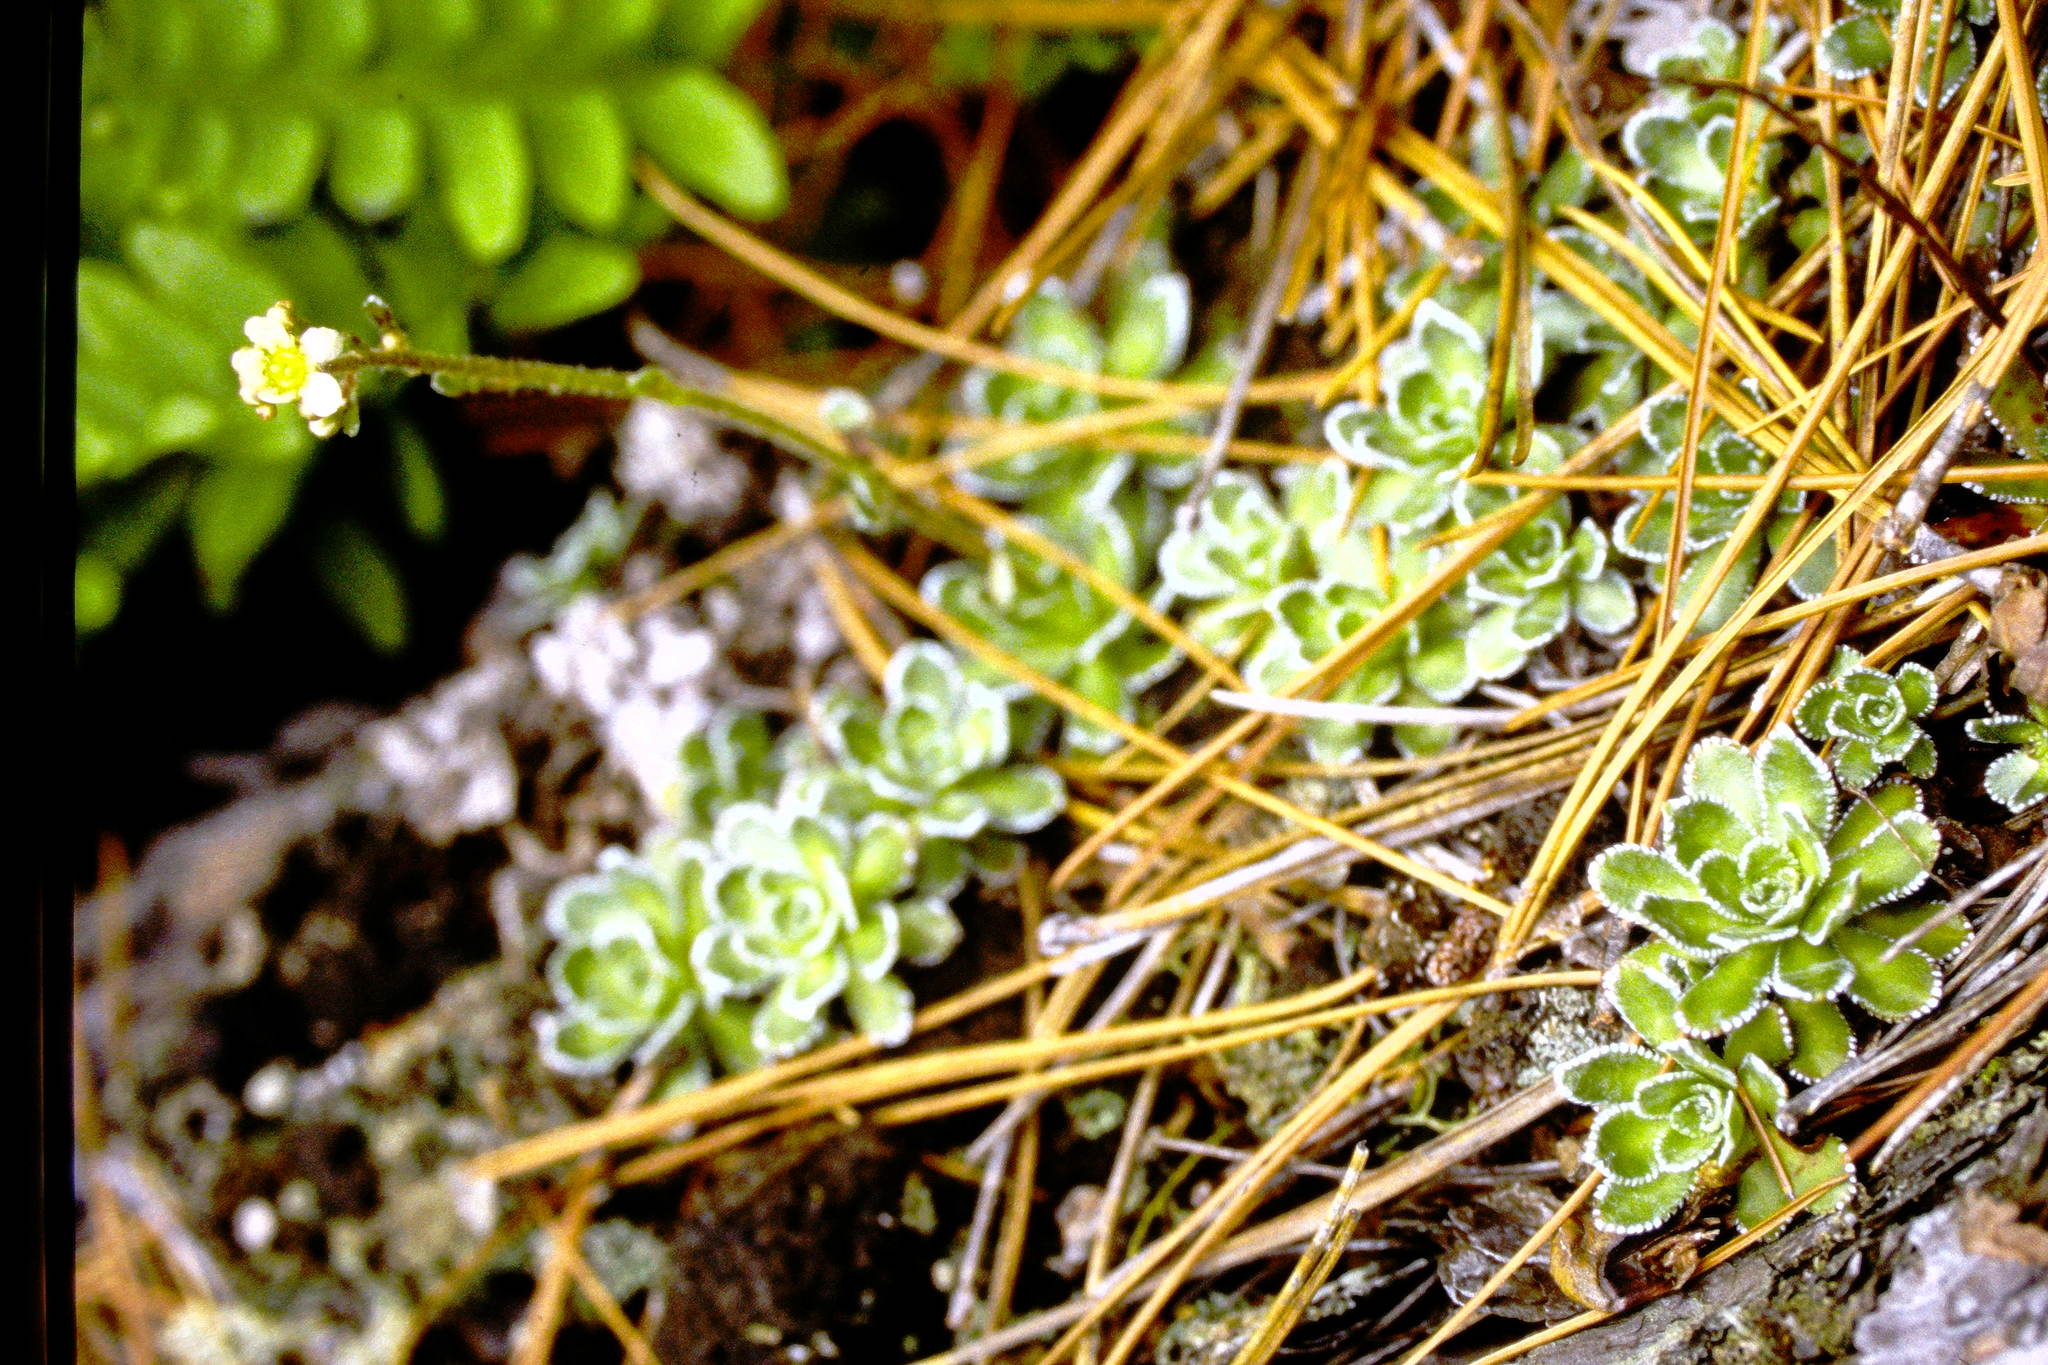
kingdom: Plantae
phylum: Tracheophyta
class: Magnoliopsida
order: Saxifragales
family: Saxifragaceae
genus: Saxifraga
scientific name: Saxifraga paniculata
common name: Livelong saxifrage
